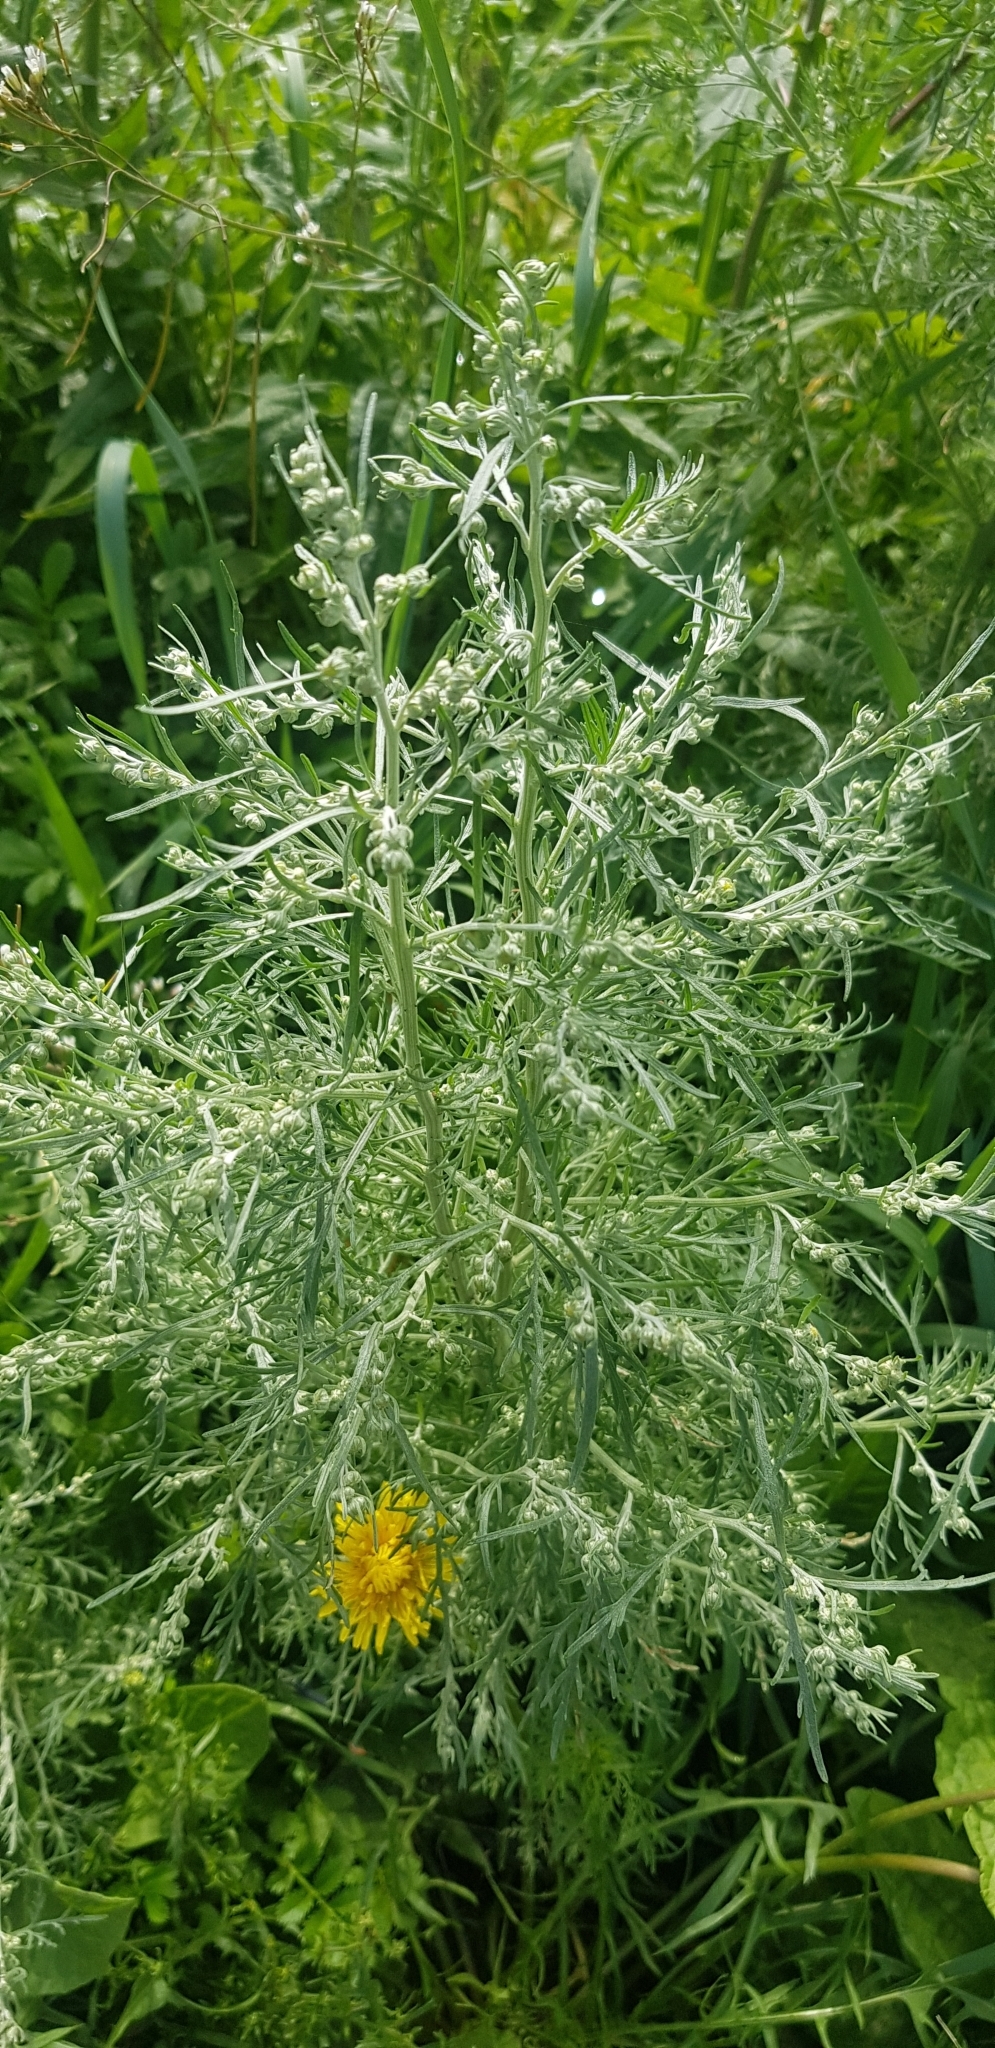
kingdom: Plantae
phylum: Tracheophyta
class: Magnoliopsida
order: Asterales
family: Asteraceae
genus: Artemisia
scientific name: Artemisia sieversiana
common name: Sieversian wormwood
